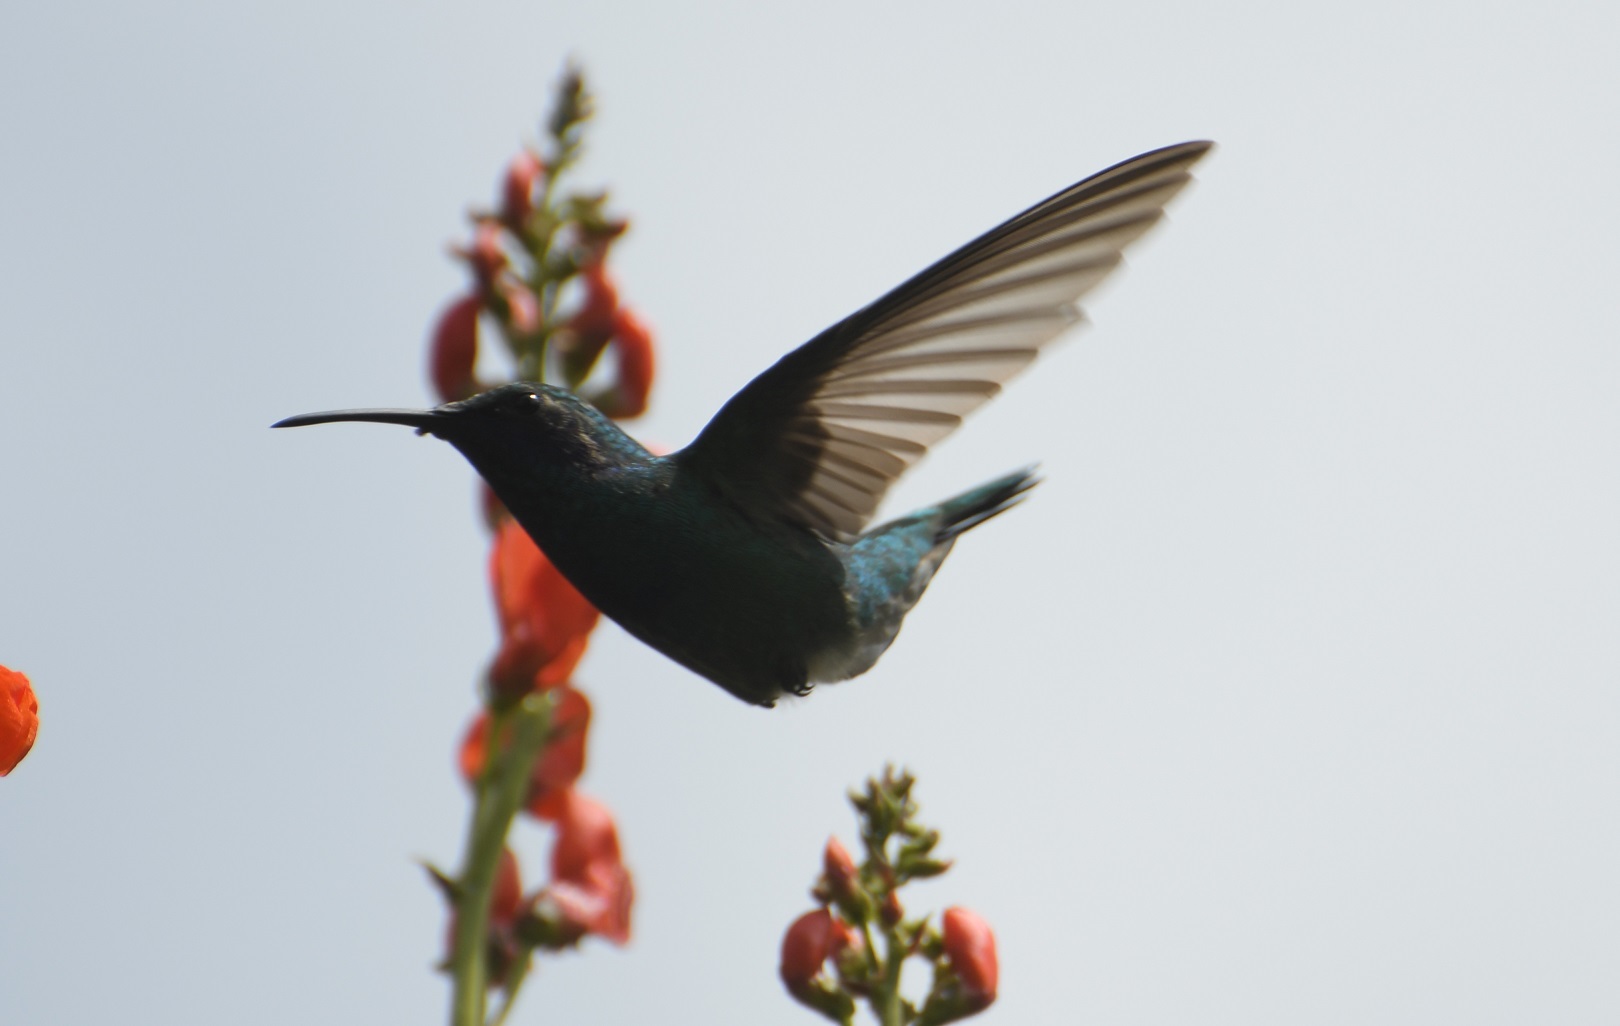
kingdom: Animalia
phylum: Chordata
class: Aves
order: Apodiformes
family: Trochilidae
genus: Colibri
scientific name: Colibri thalassinus
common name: Green violetear
